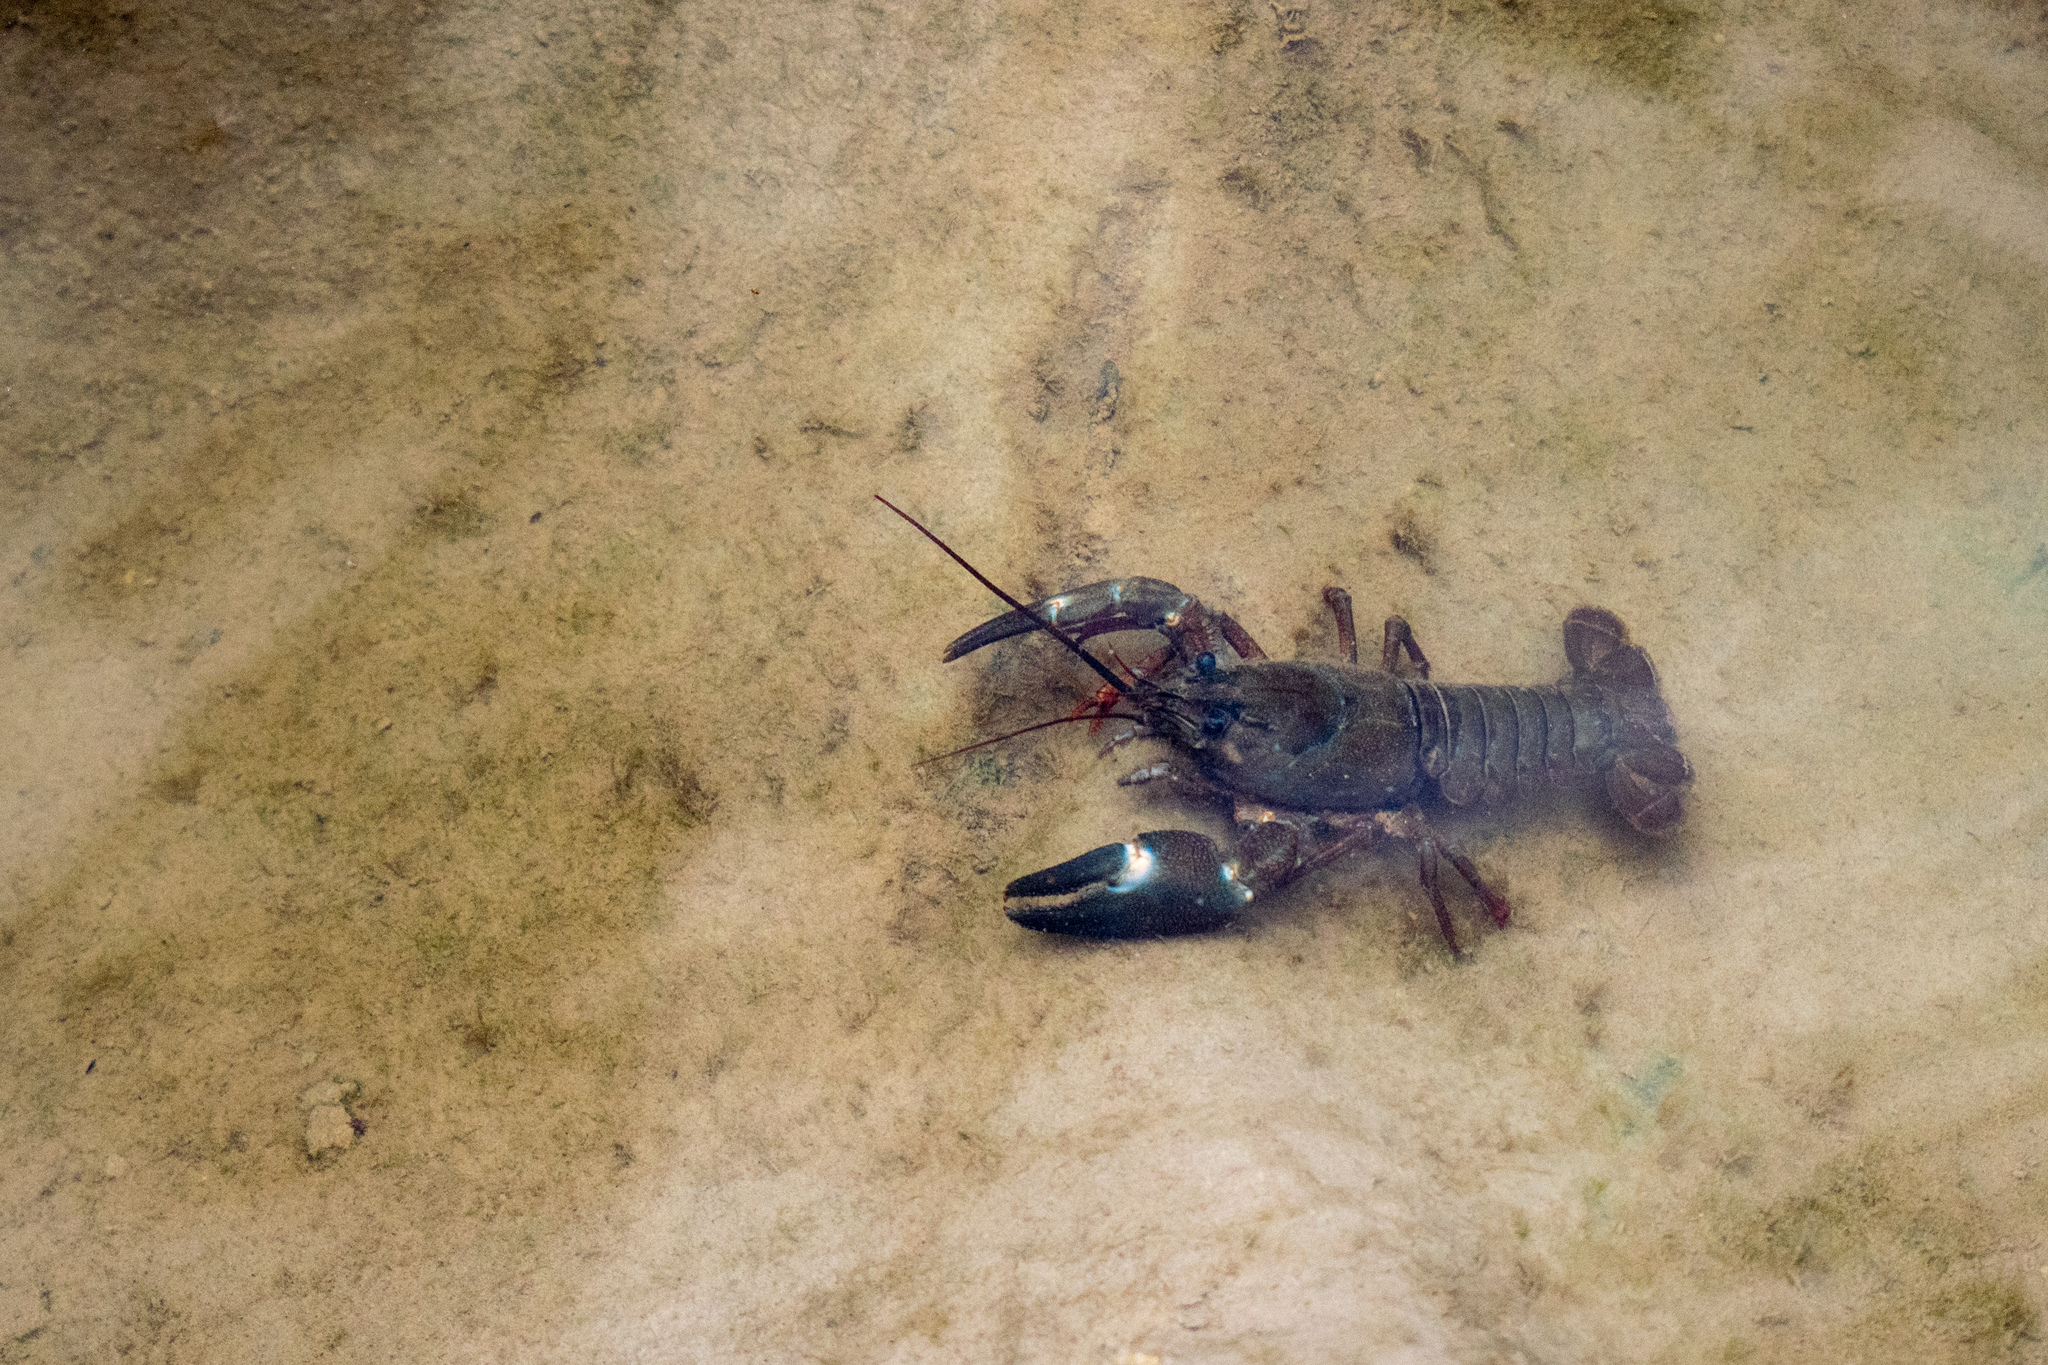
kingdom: Animalia
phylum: Arthropoda
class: Malacostraca
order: Decapoda
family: Astacidae
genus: Pacifastacus
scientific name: Pacifastacus leniusculus
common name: Signal crayfish
